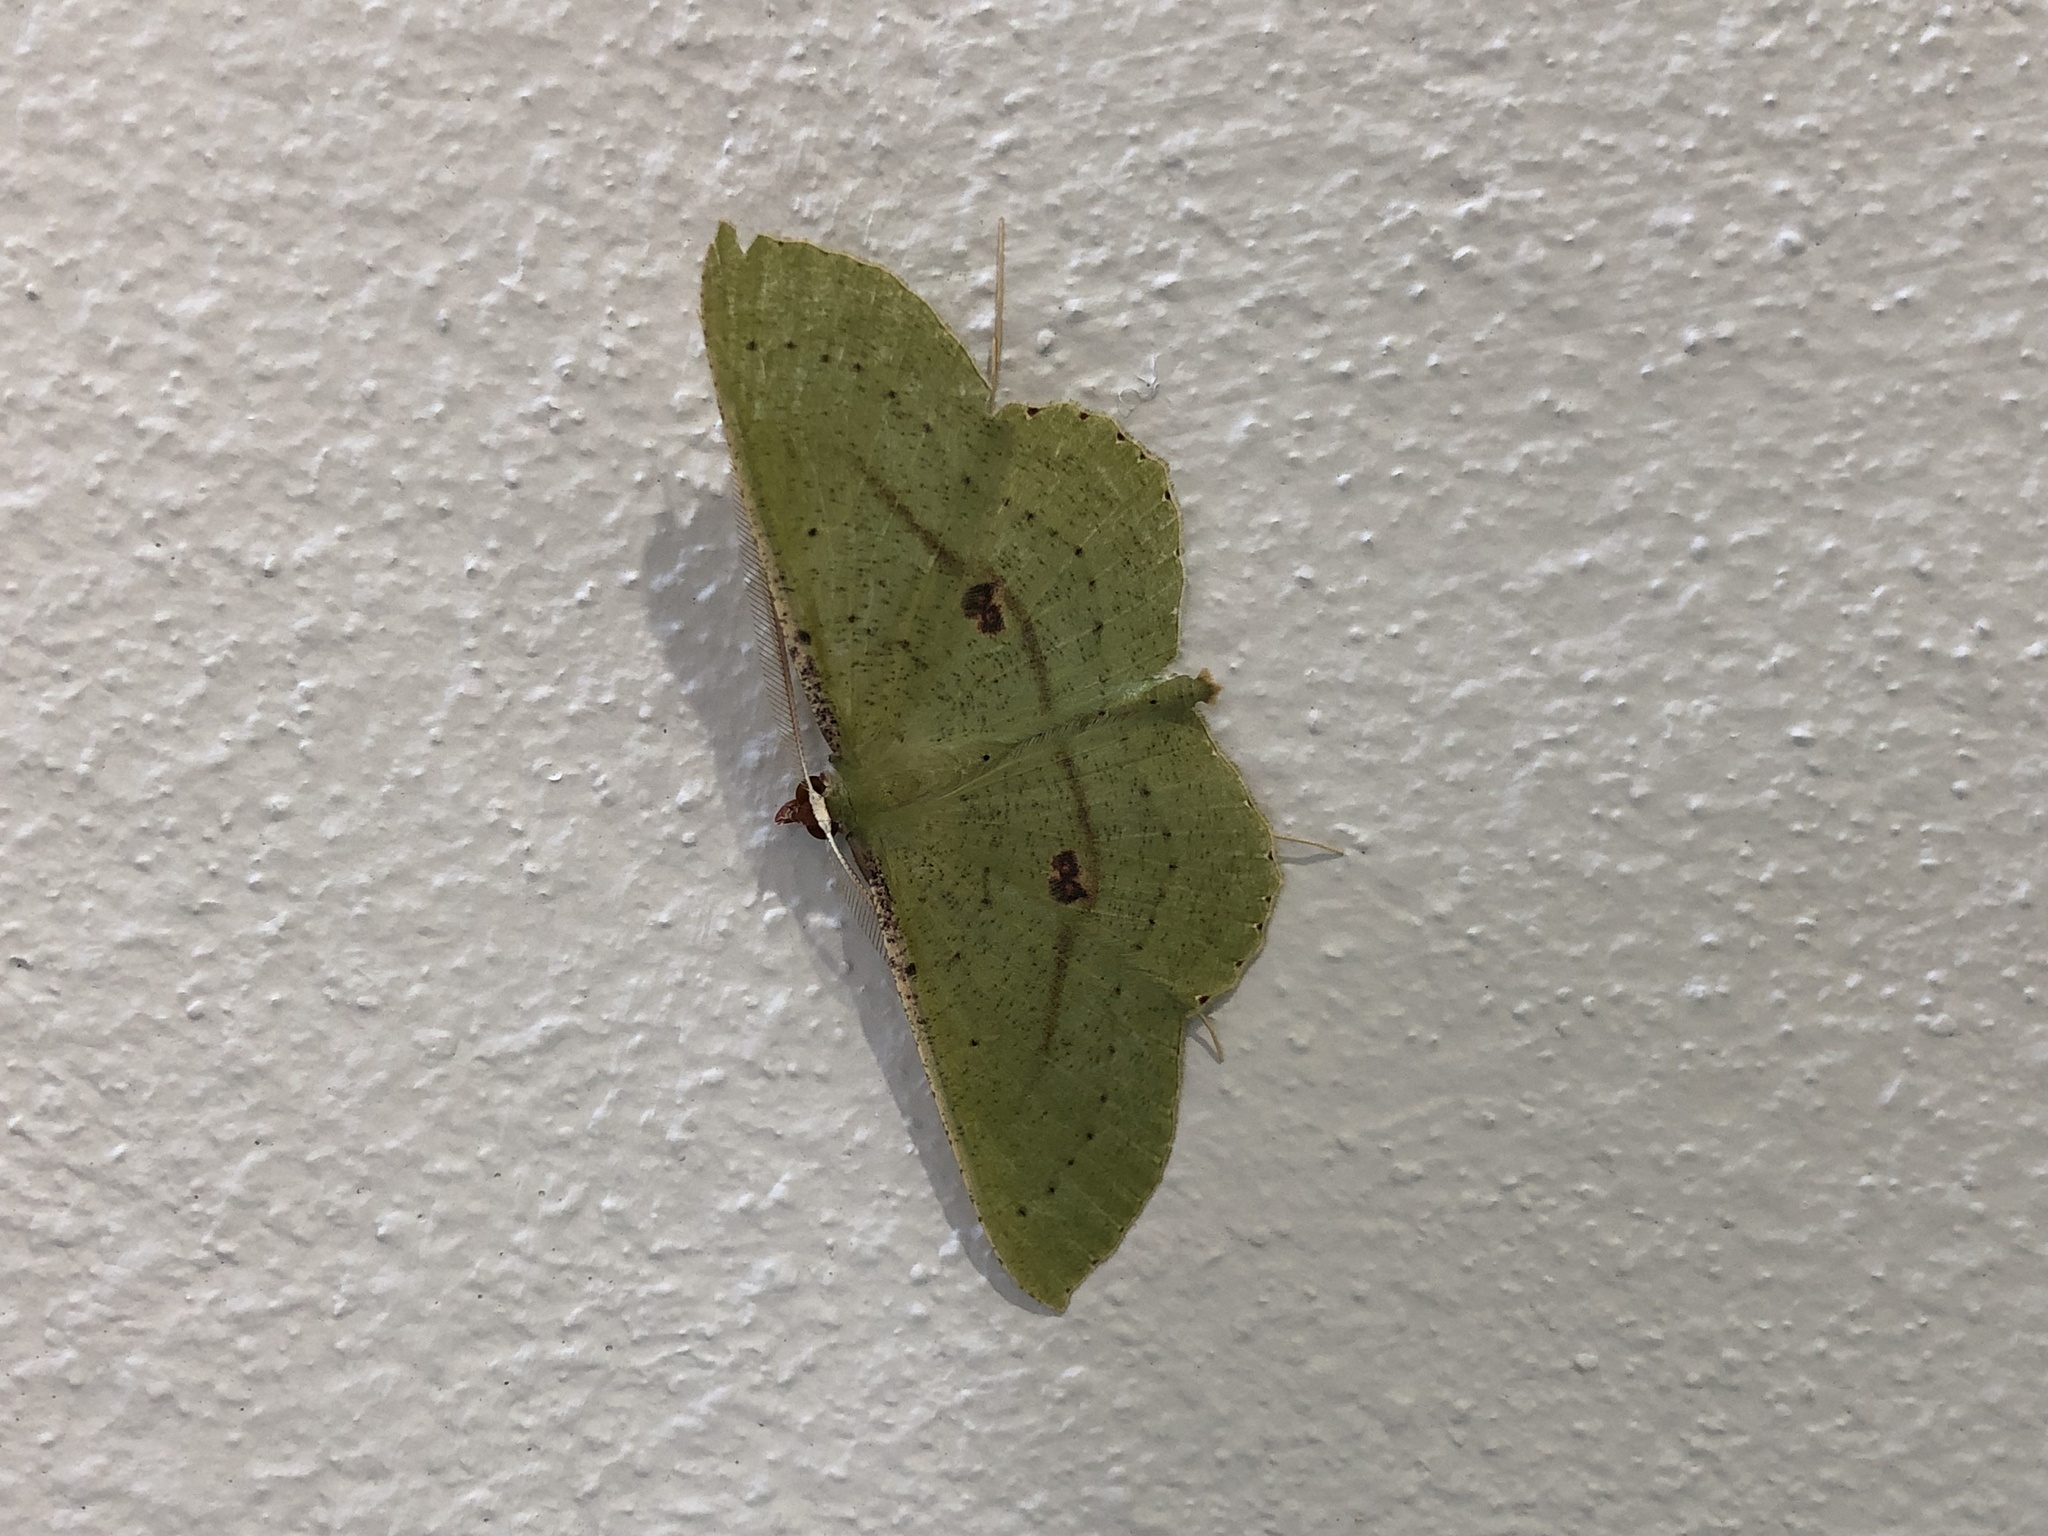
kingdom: Animalia
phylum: Arthropoda
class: Insecta
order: Lepidoptera
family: Geometridae
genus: Ametris
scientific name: Ametris nitocris
